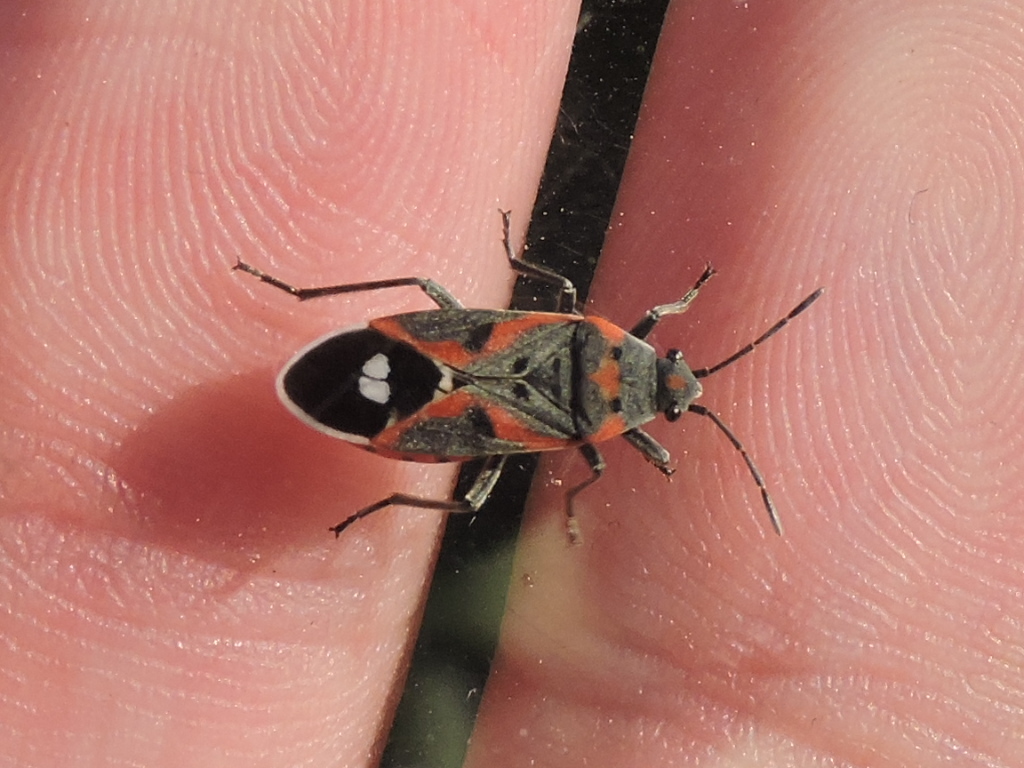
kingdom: Animalia
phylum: Arthropoda
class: Insecta
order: Hemiptera
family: Lygaeidae
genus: Lygaeus
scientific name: Lygaeus kalmii
